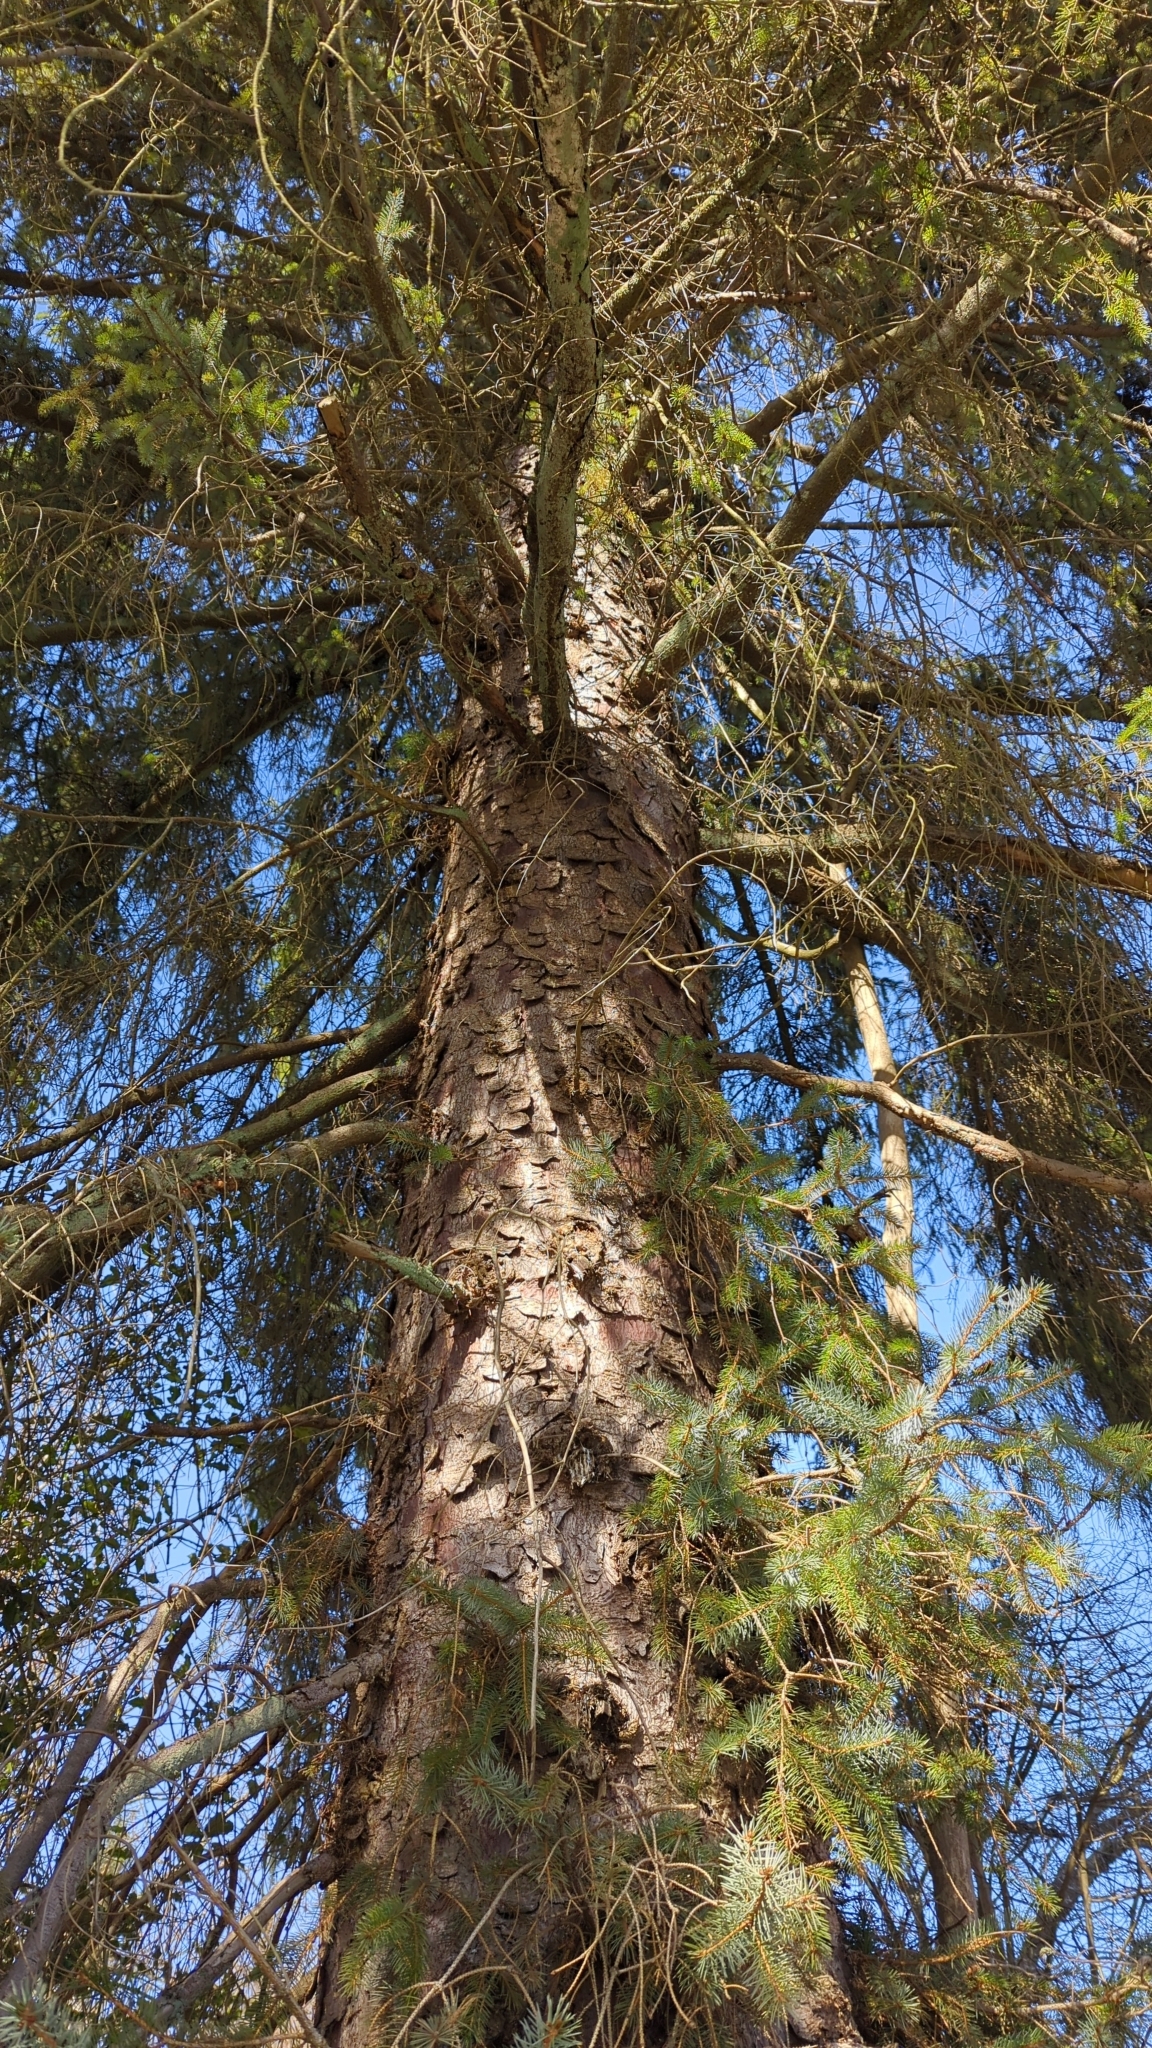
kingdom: Plantae
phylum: Tracheophyta
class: Pinopsida
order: Pinales
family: Pinaceae
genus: Picea
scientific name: Picea sitchensis
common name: Sitka spruce
